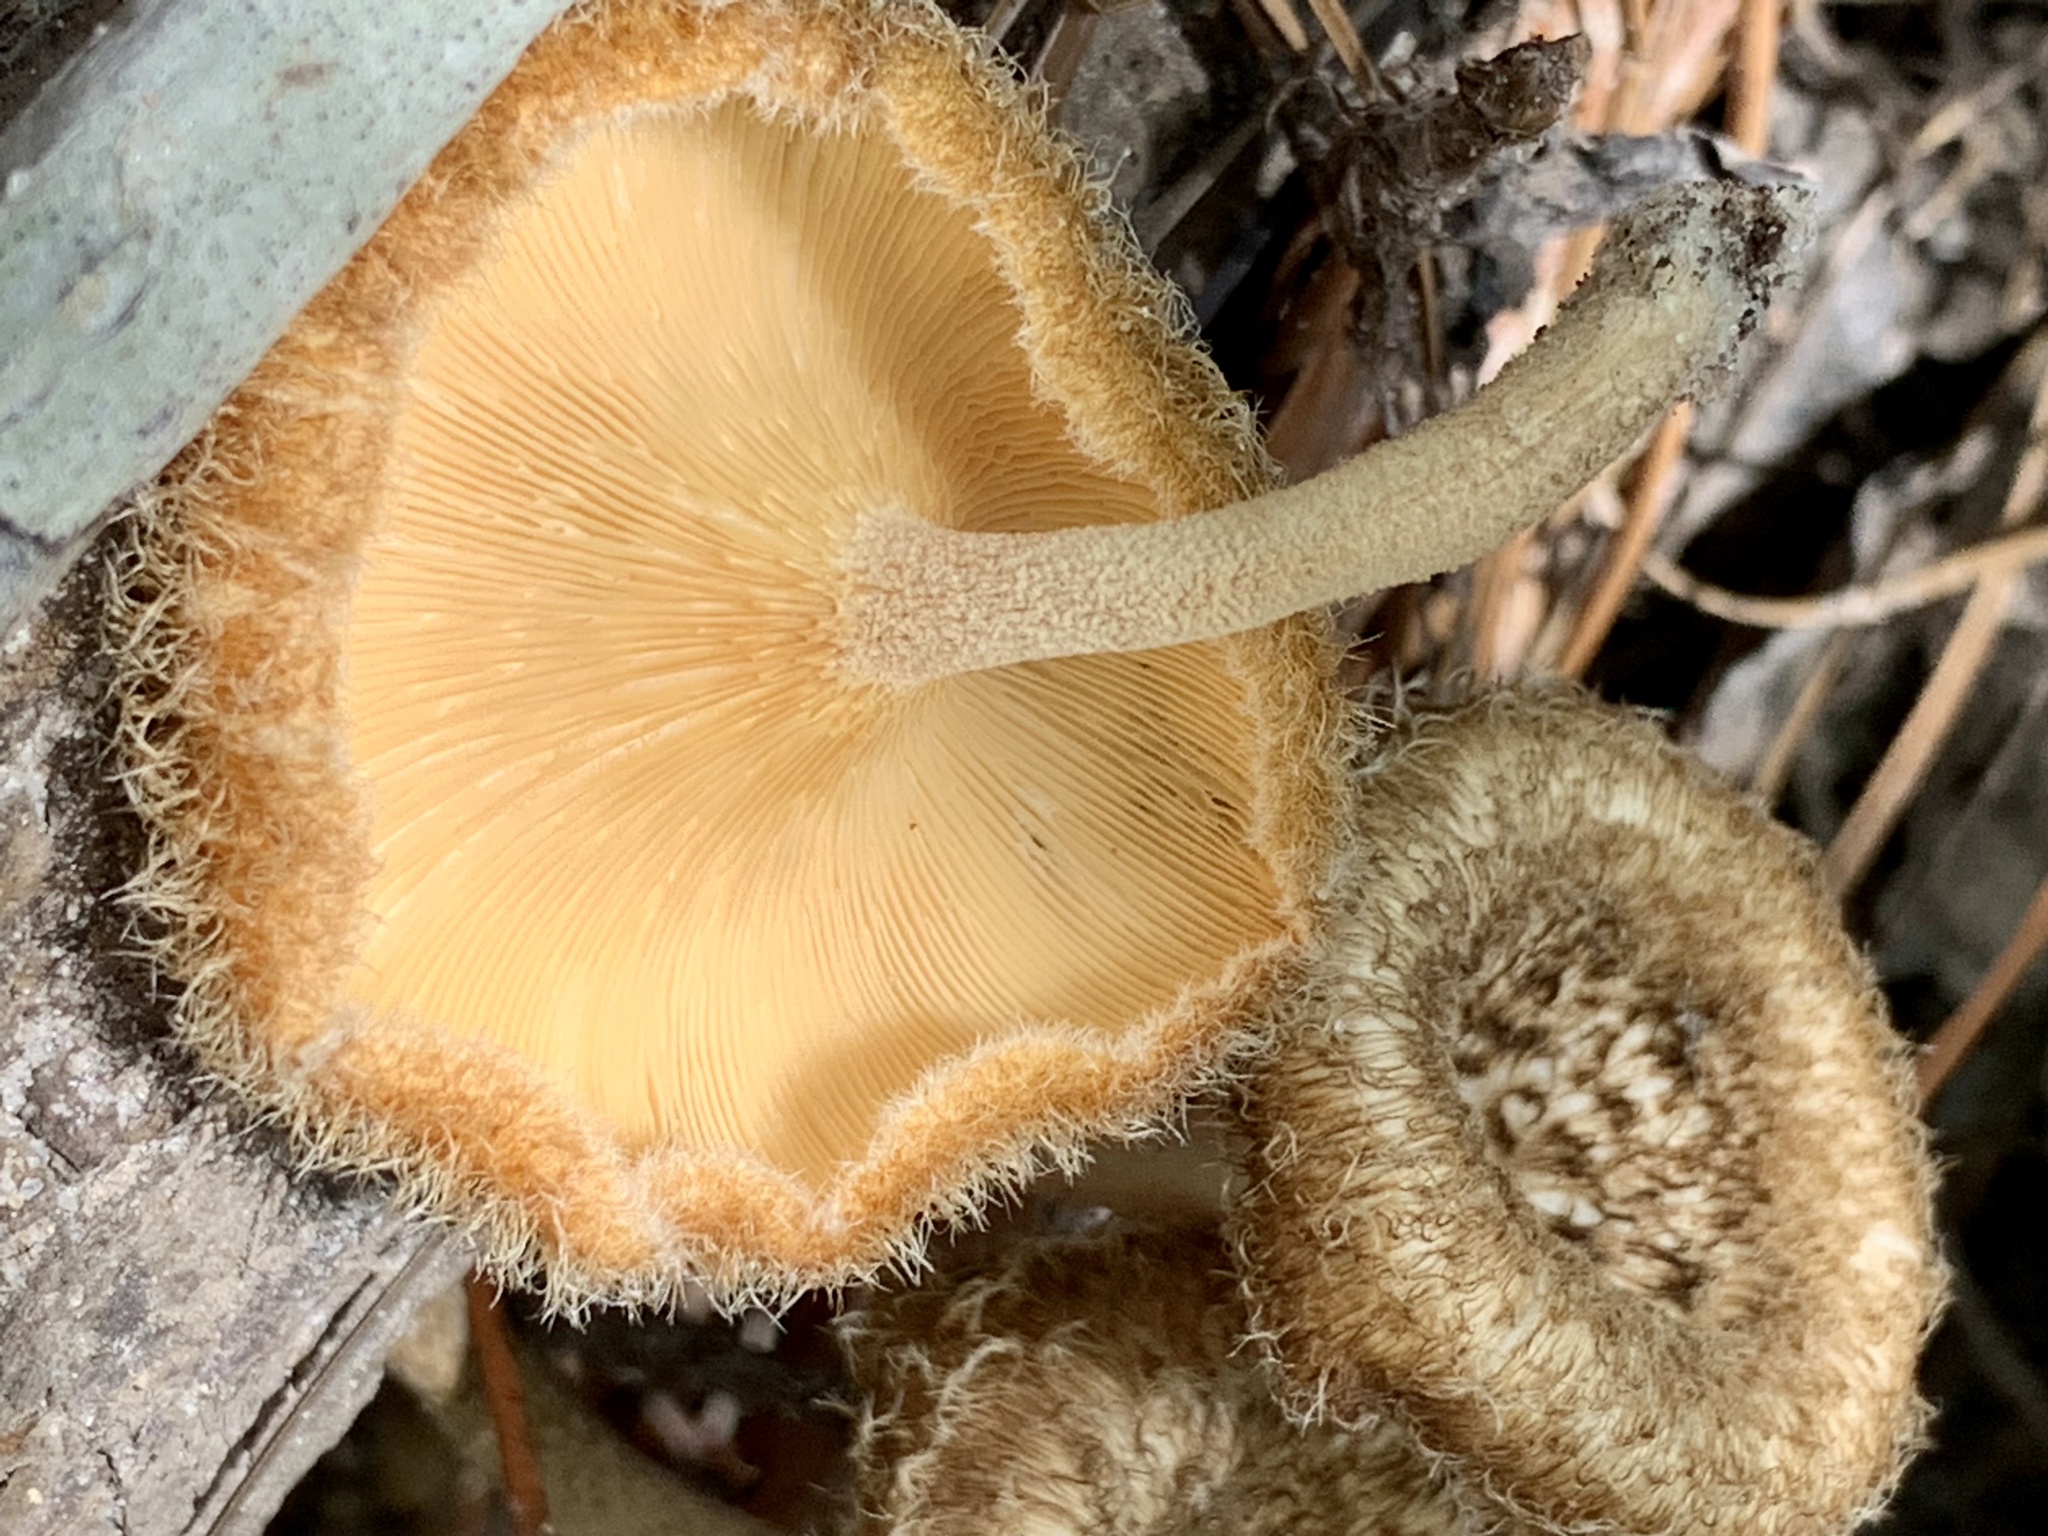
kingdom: Fungi
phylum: Basidiomycota
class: Agaricomycetes
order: Polyporales
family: Polyporaceae
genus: Lentinus
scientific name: Lentinus crinitus
